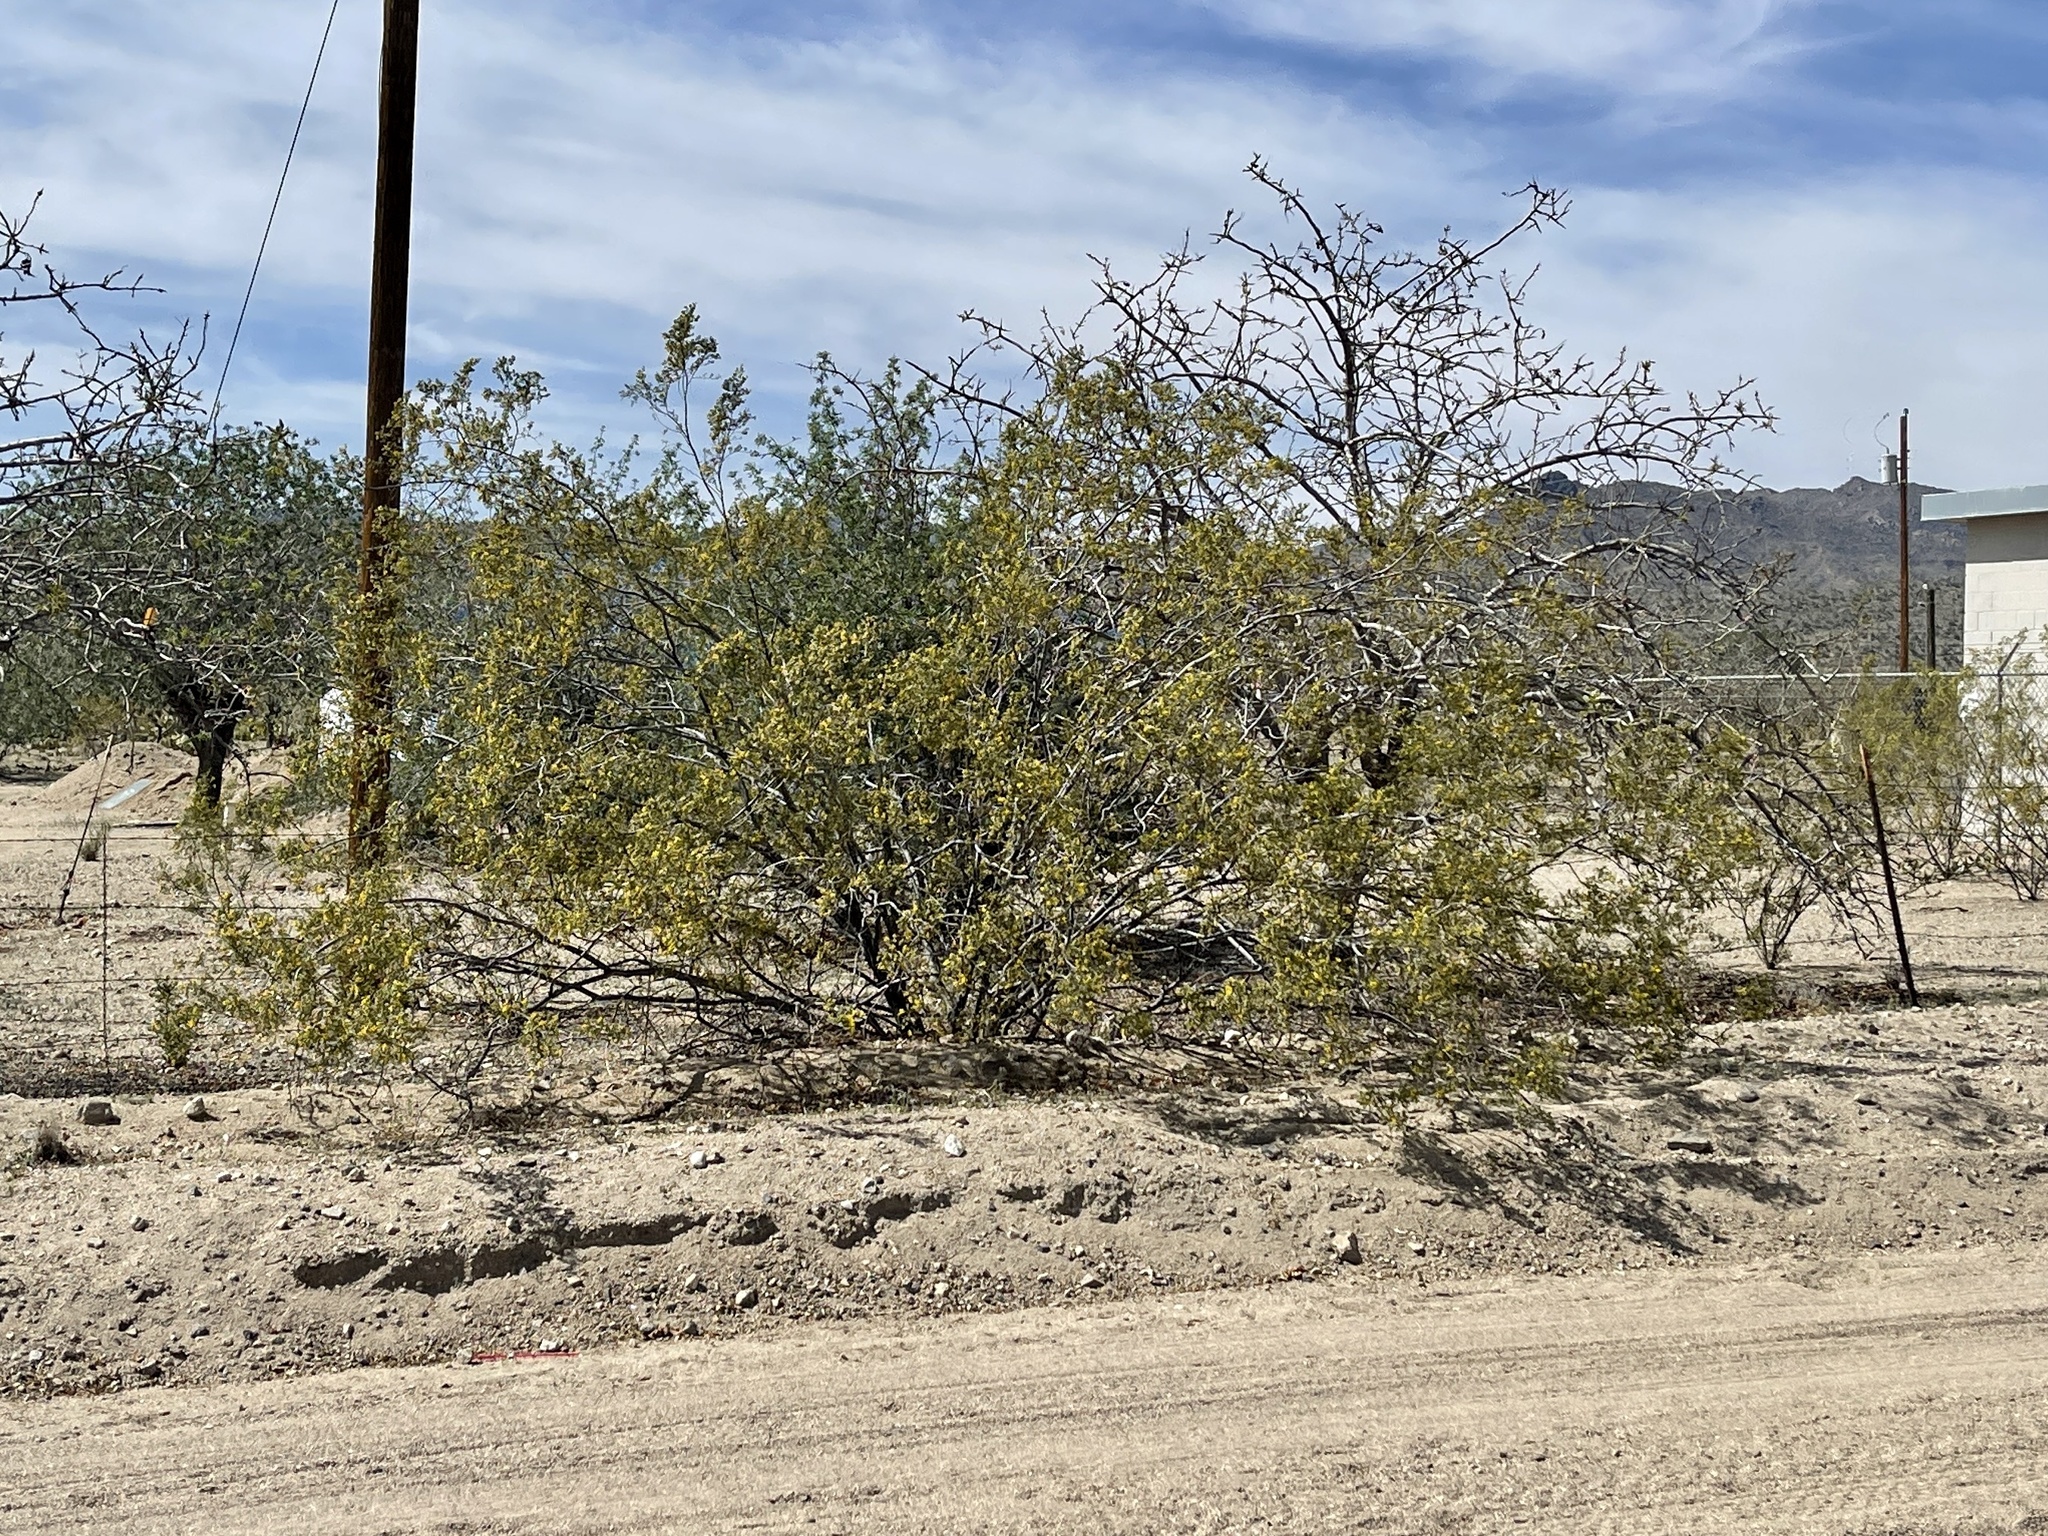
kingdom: Plantae
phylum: Tracheophyta
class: Magnoliopsida
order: Zygophyllales
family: Zygophyllaceae
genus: Larrea
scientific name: Larrea tridentata
